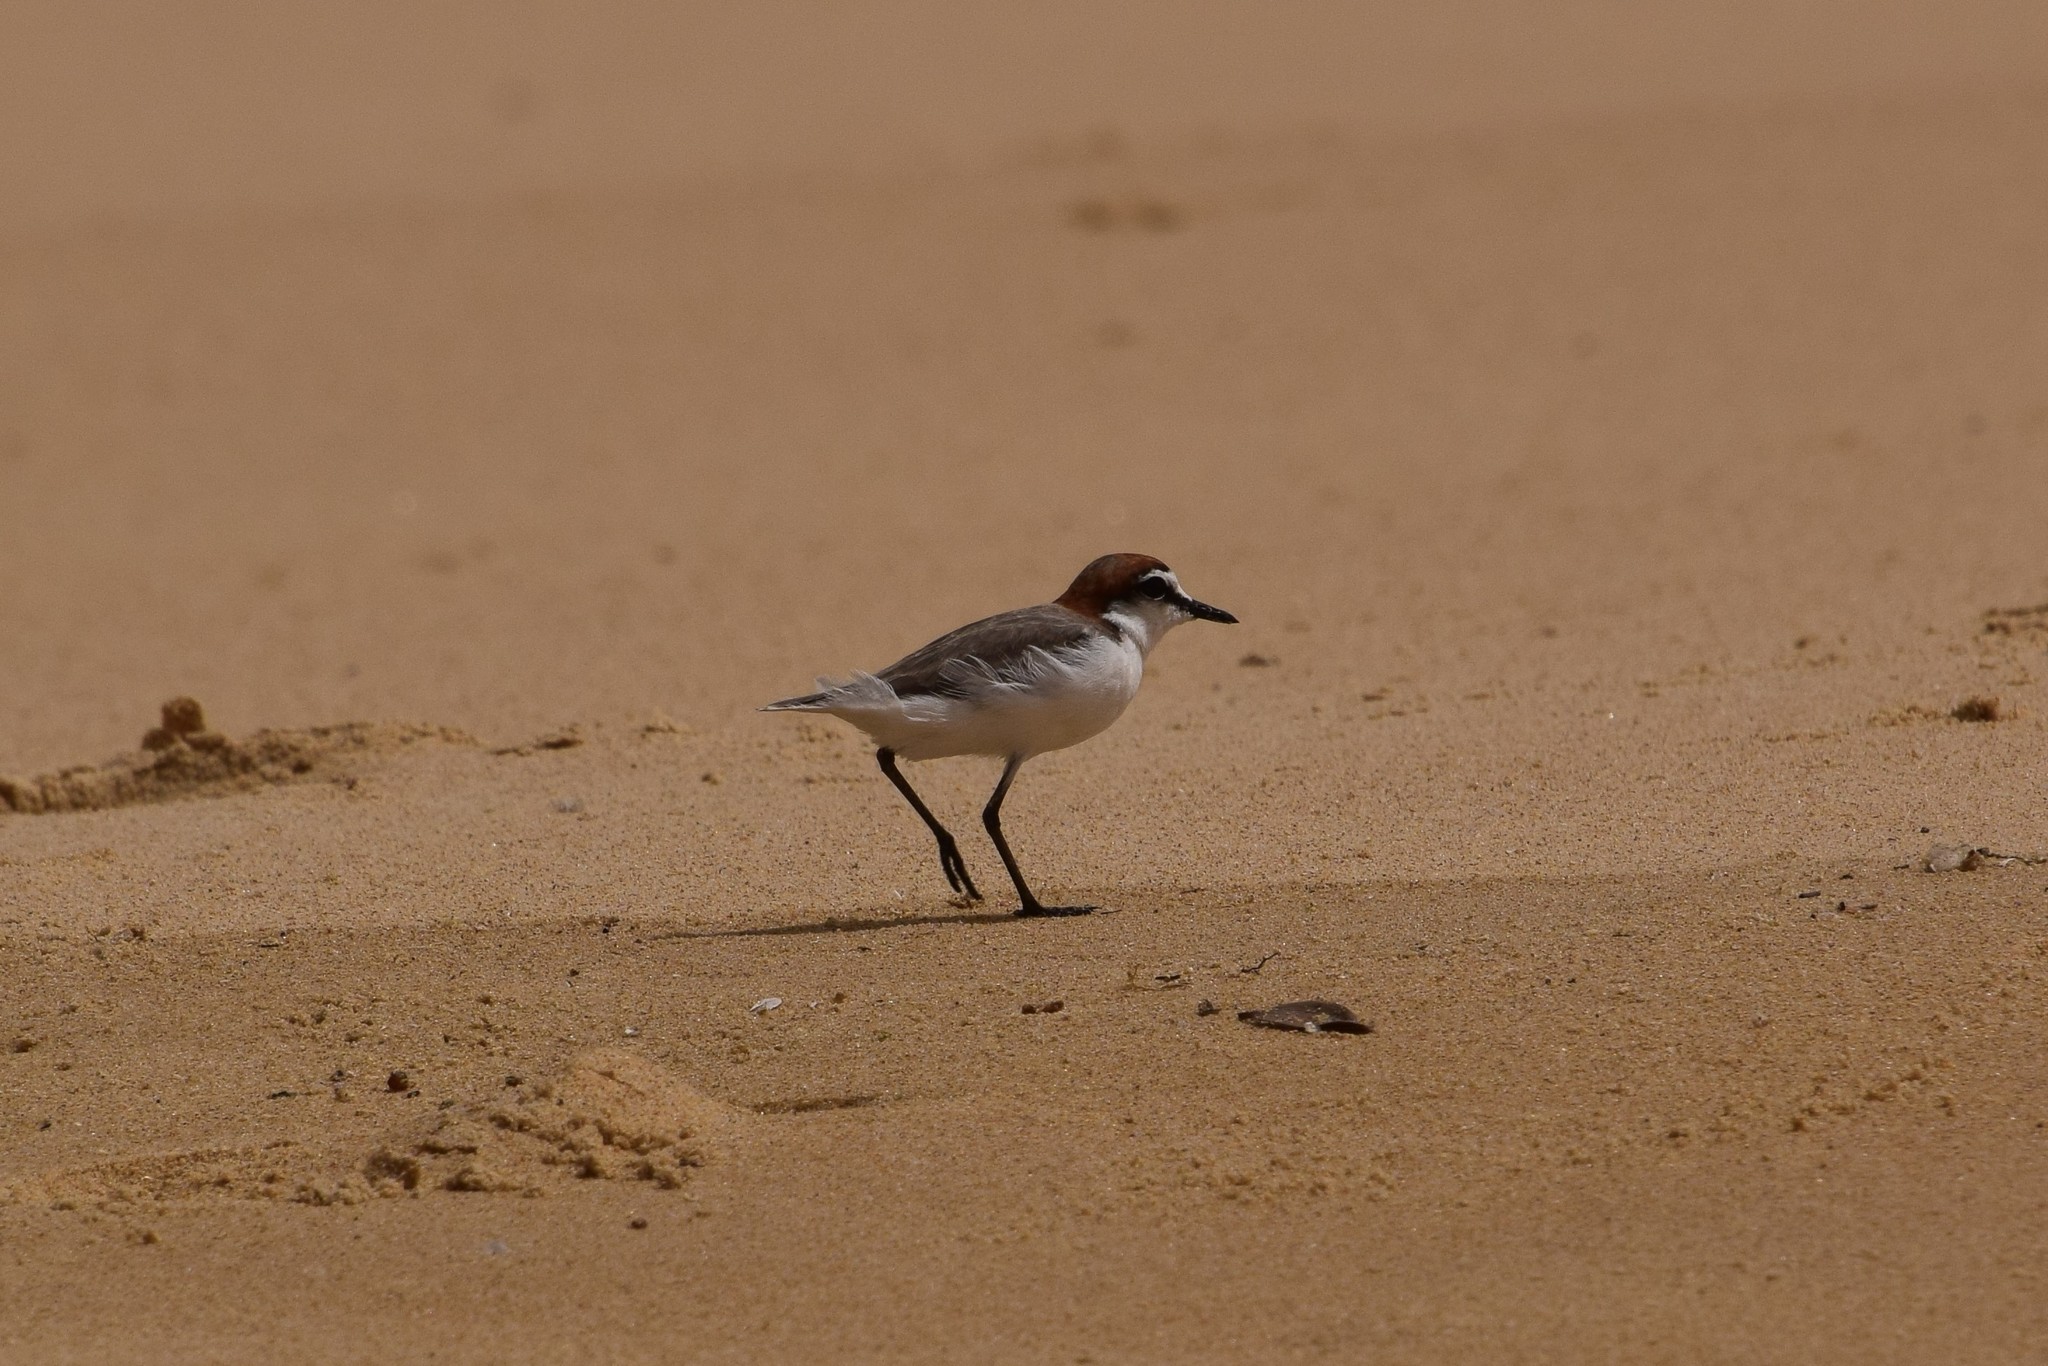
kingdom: Animalia
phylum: Chordata
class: Aves
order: Charadriiformes
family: Charadriidae
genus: Anarhynchus
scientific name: Anarhynchus
